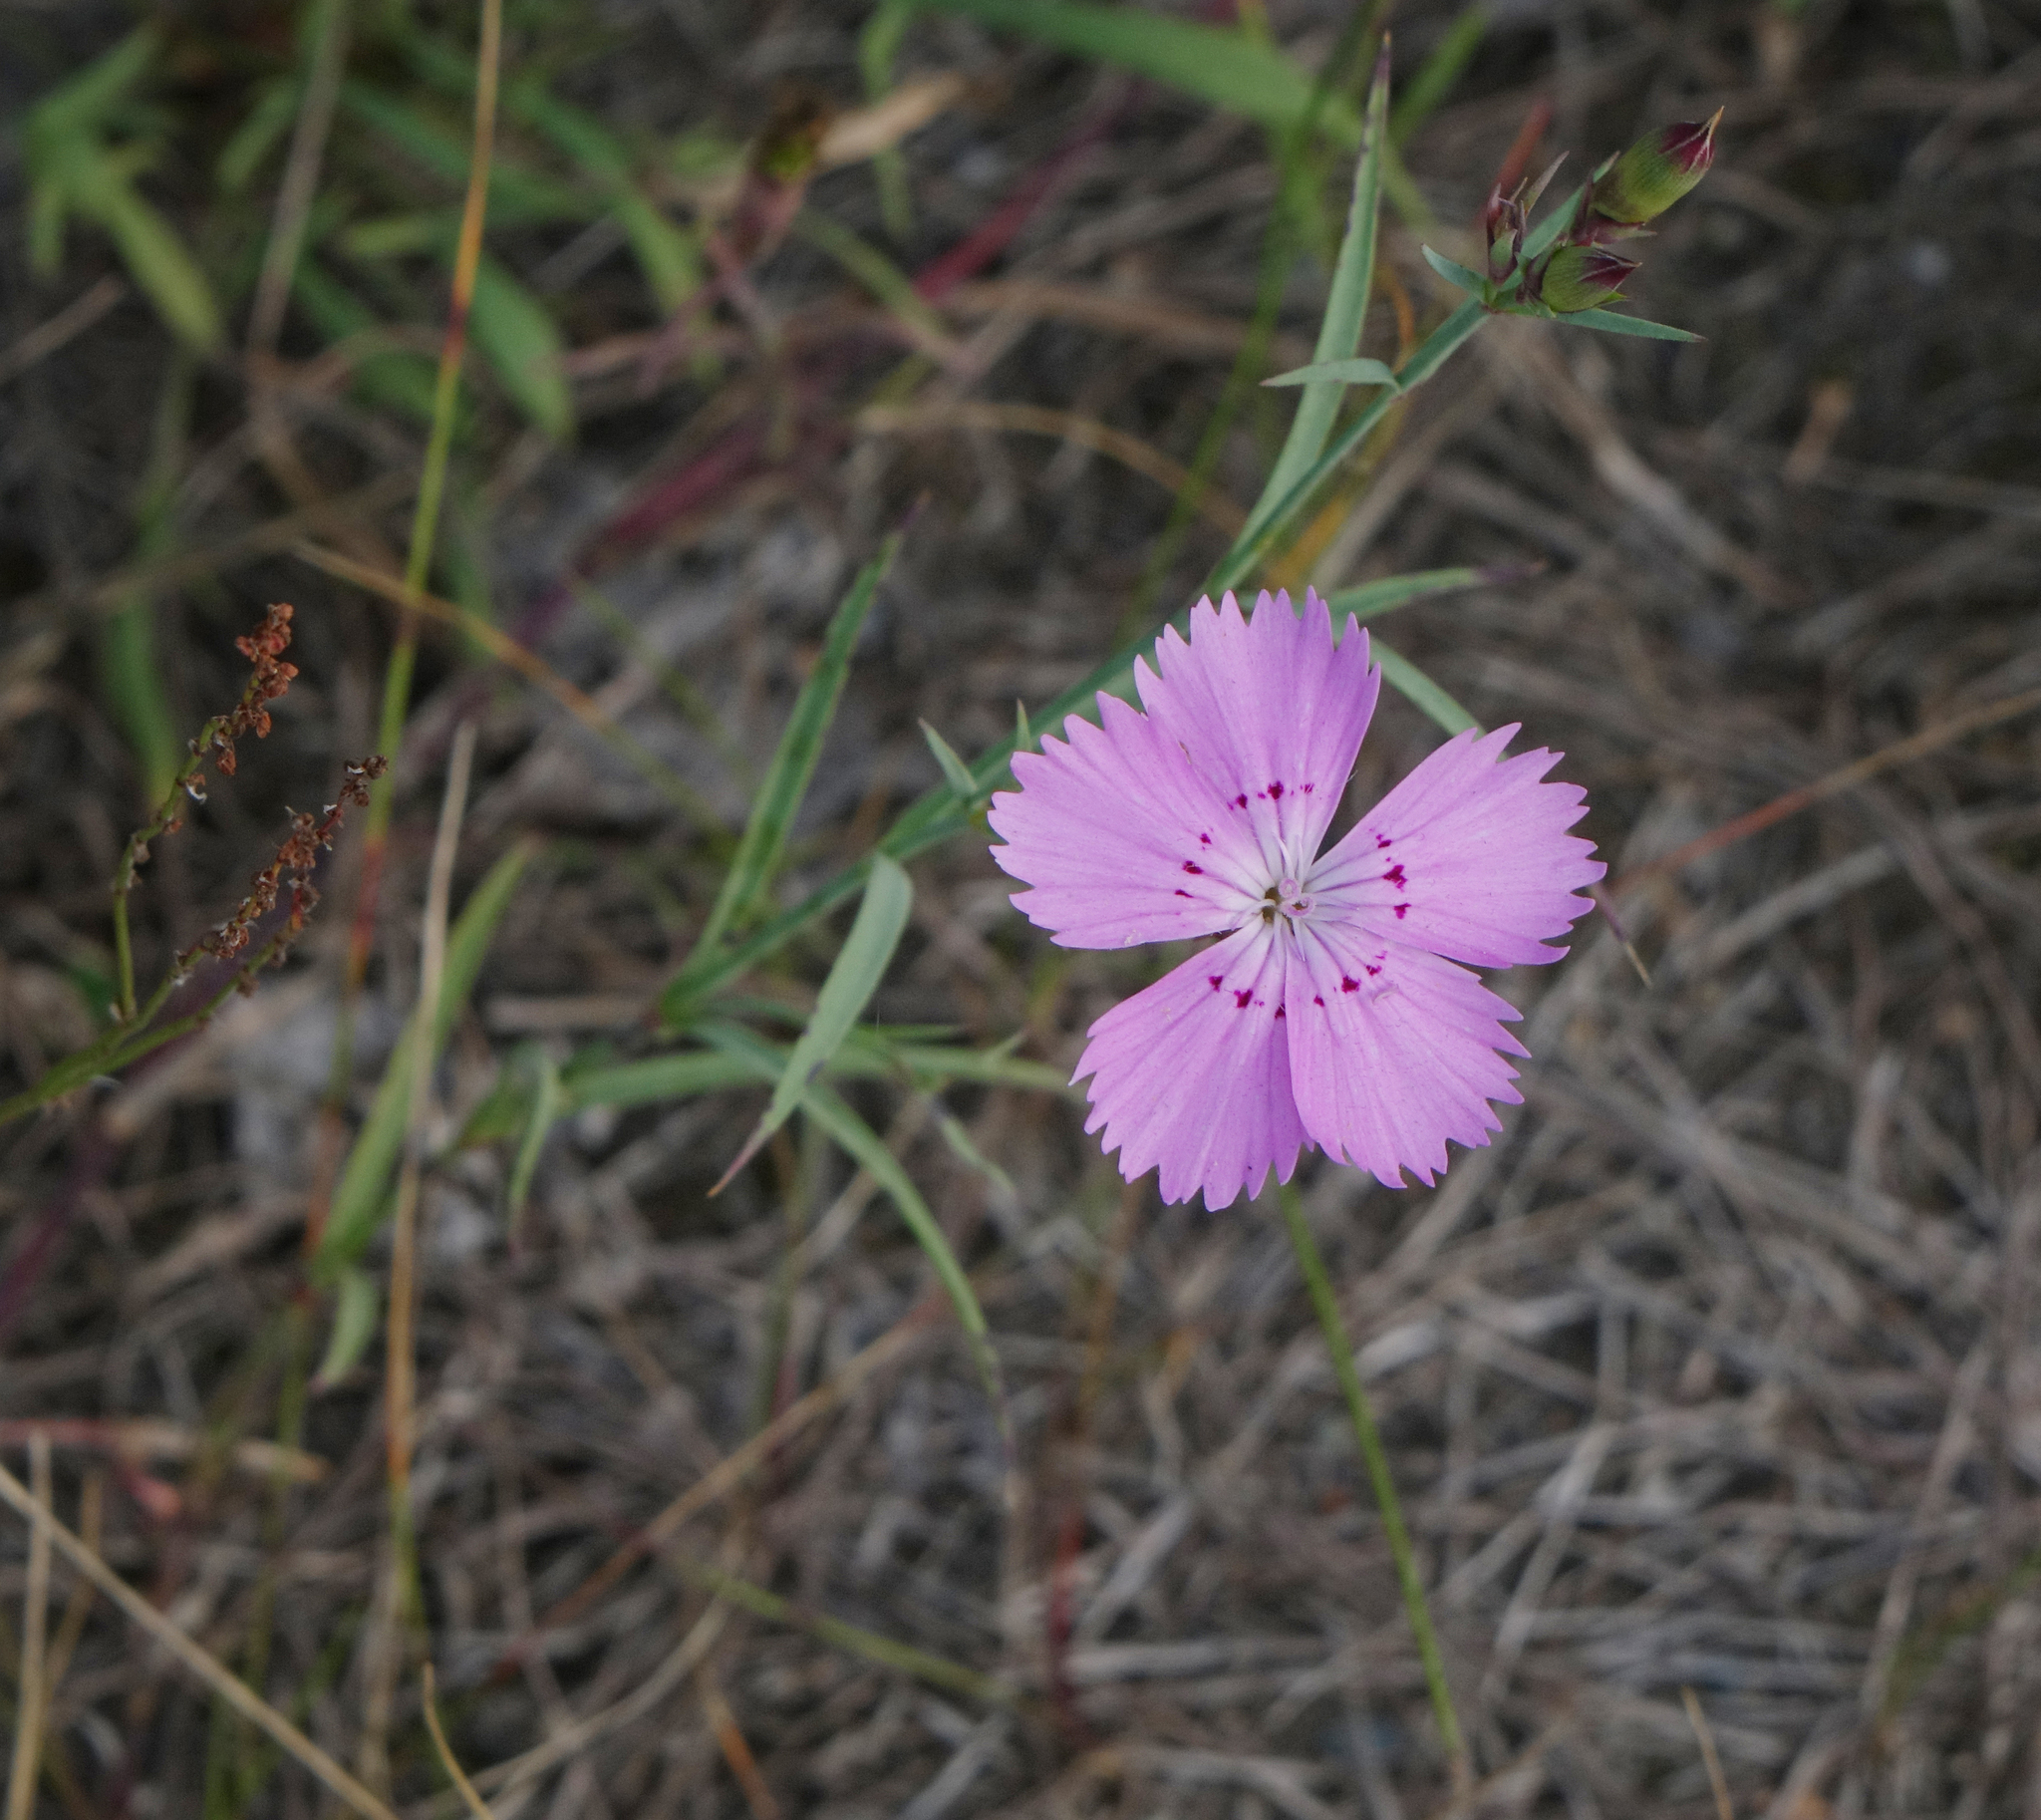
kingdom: Plantae
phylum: Tracheophyta
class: Magnoliopsida
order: Caryophyllales
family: Caryophyllaceae
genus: Dianthus
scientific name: Dianthus chinensis
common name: Rainbow pink
